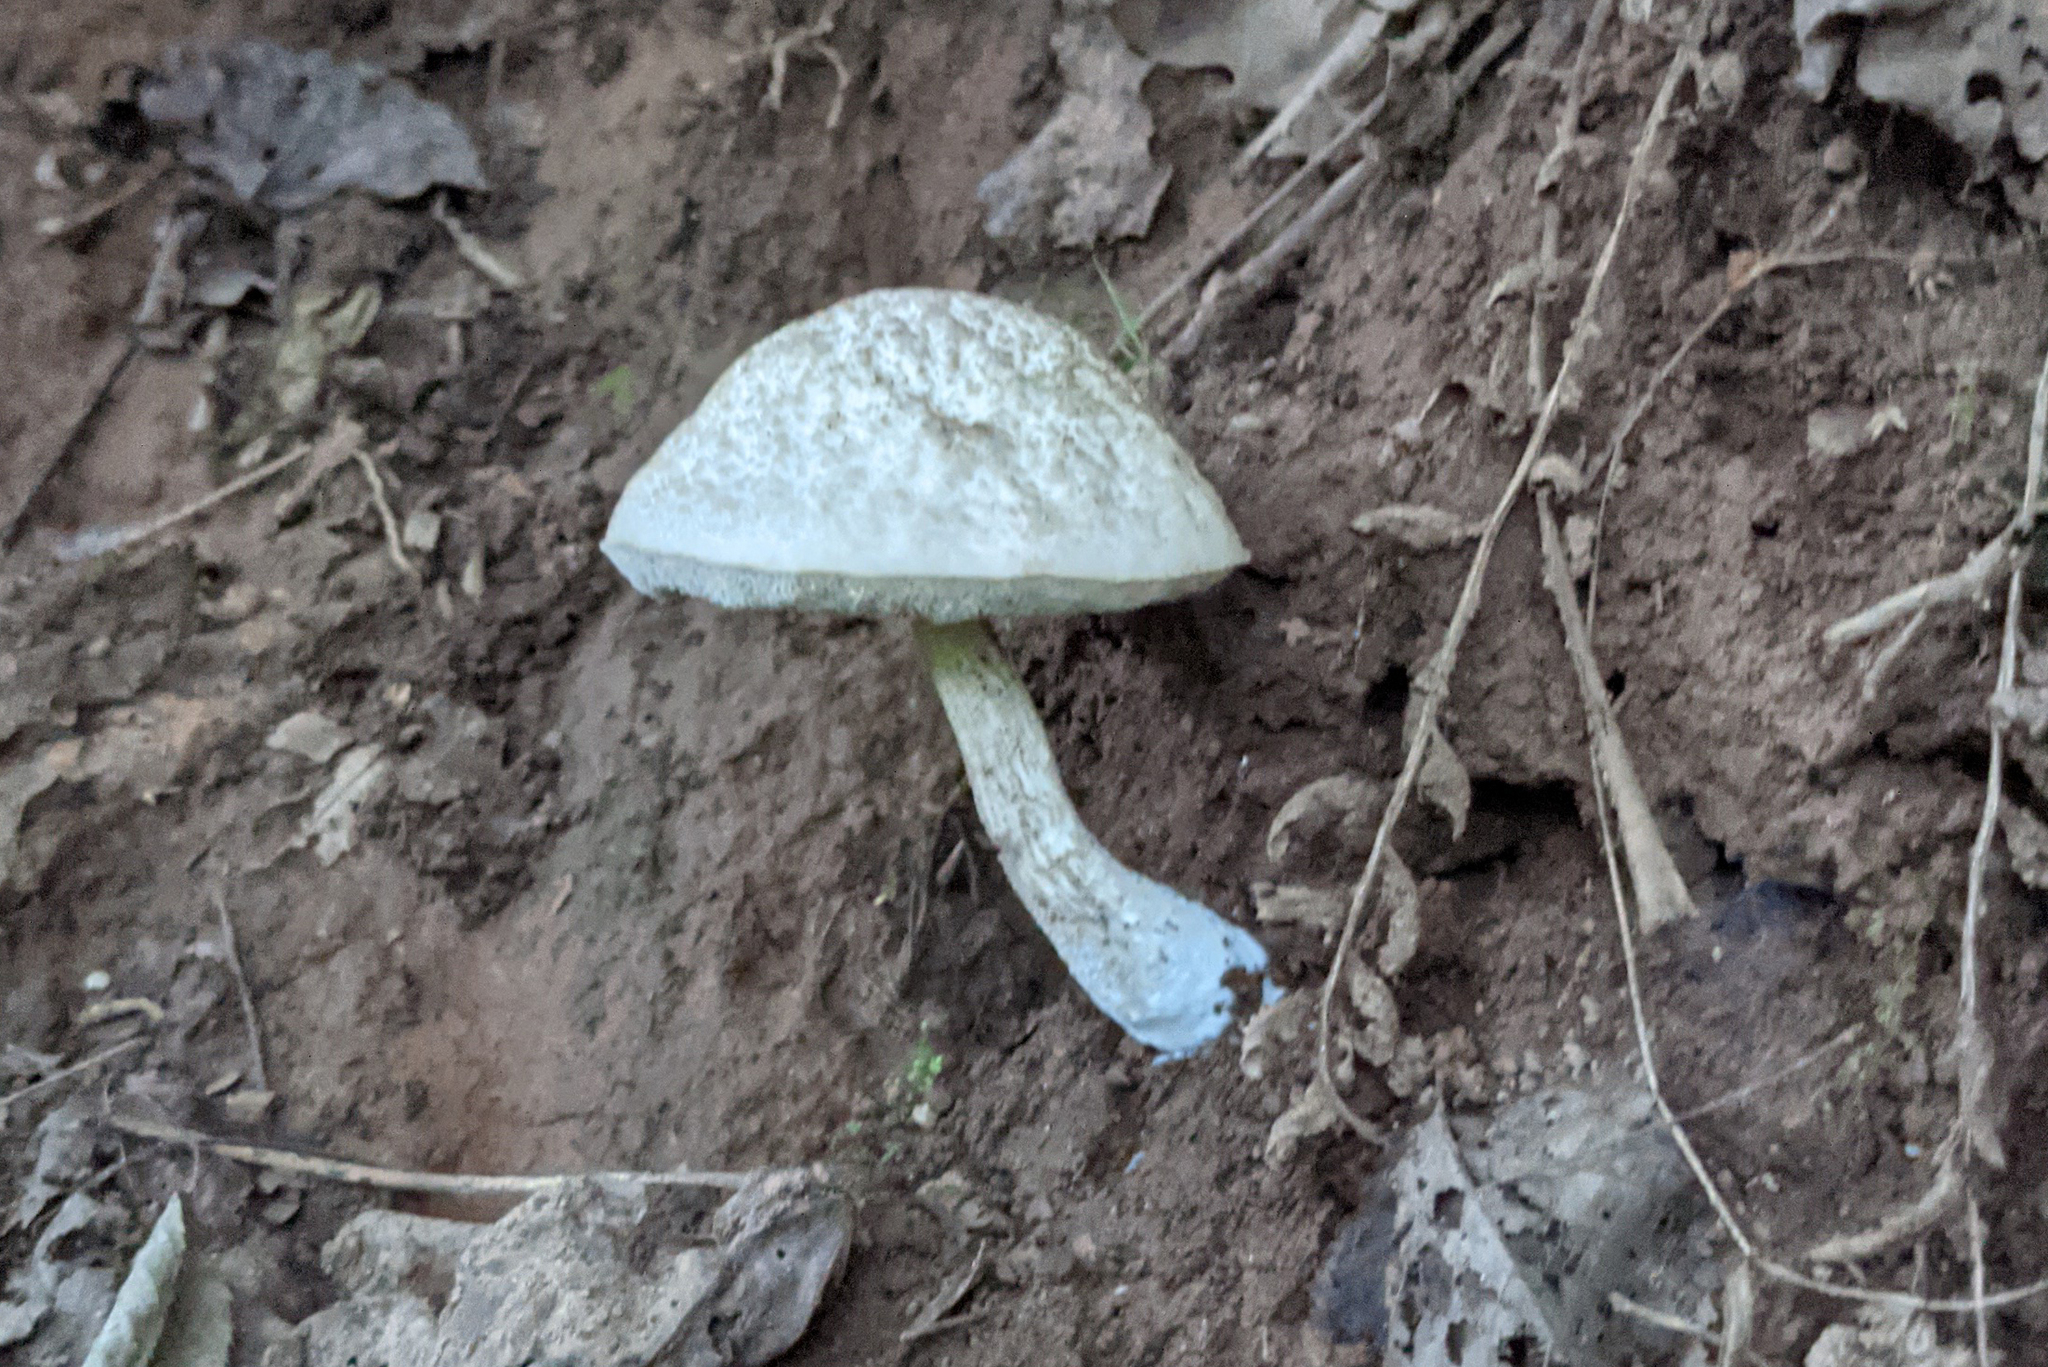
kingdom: Fungi
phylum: Basidiomycota
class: Agaricomycetes
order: Boletales
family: Boletaceae
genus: Leccinellum
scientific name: Leccinellum albellum
